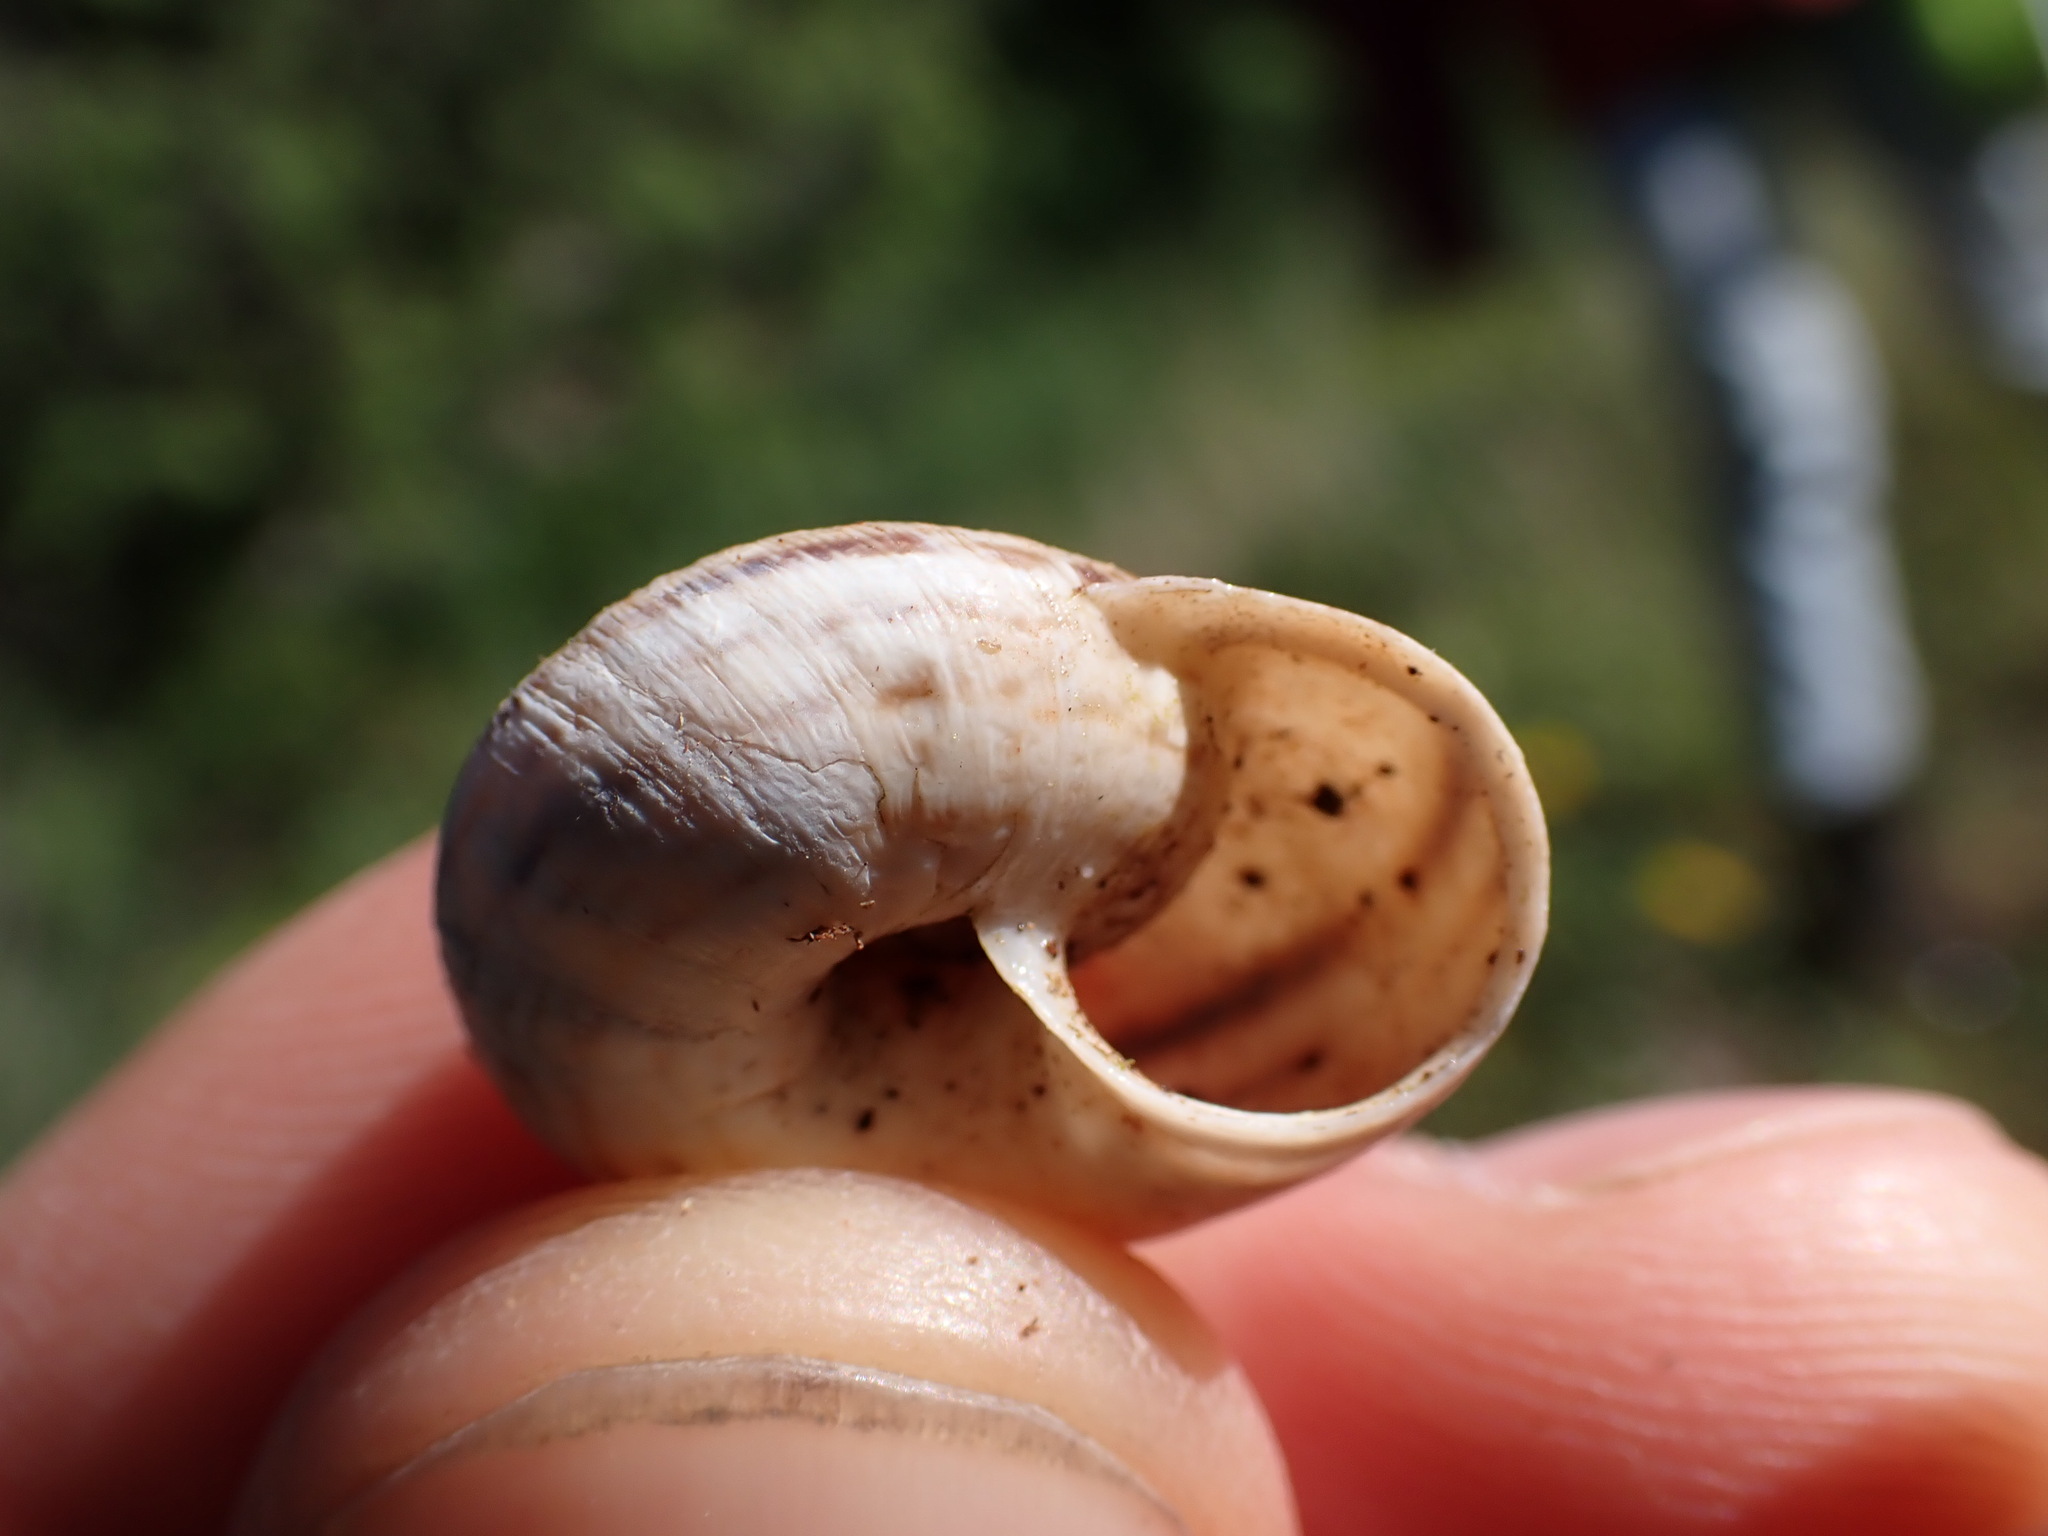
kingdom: Animalia
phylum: Mollusca
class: Gastropoda
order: Stylommatophora
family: Geomitridae
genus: Xerosecta
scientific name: Xerosecta cespitum
